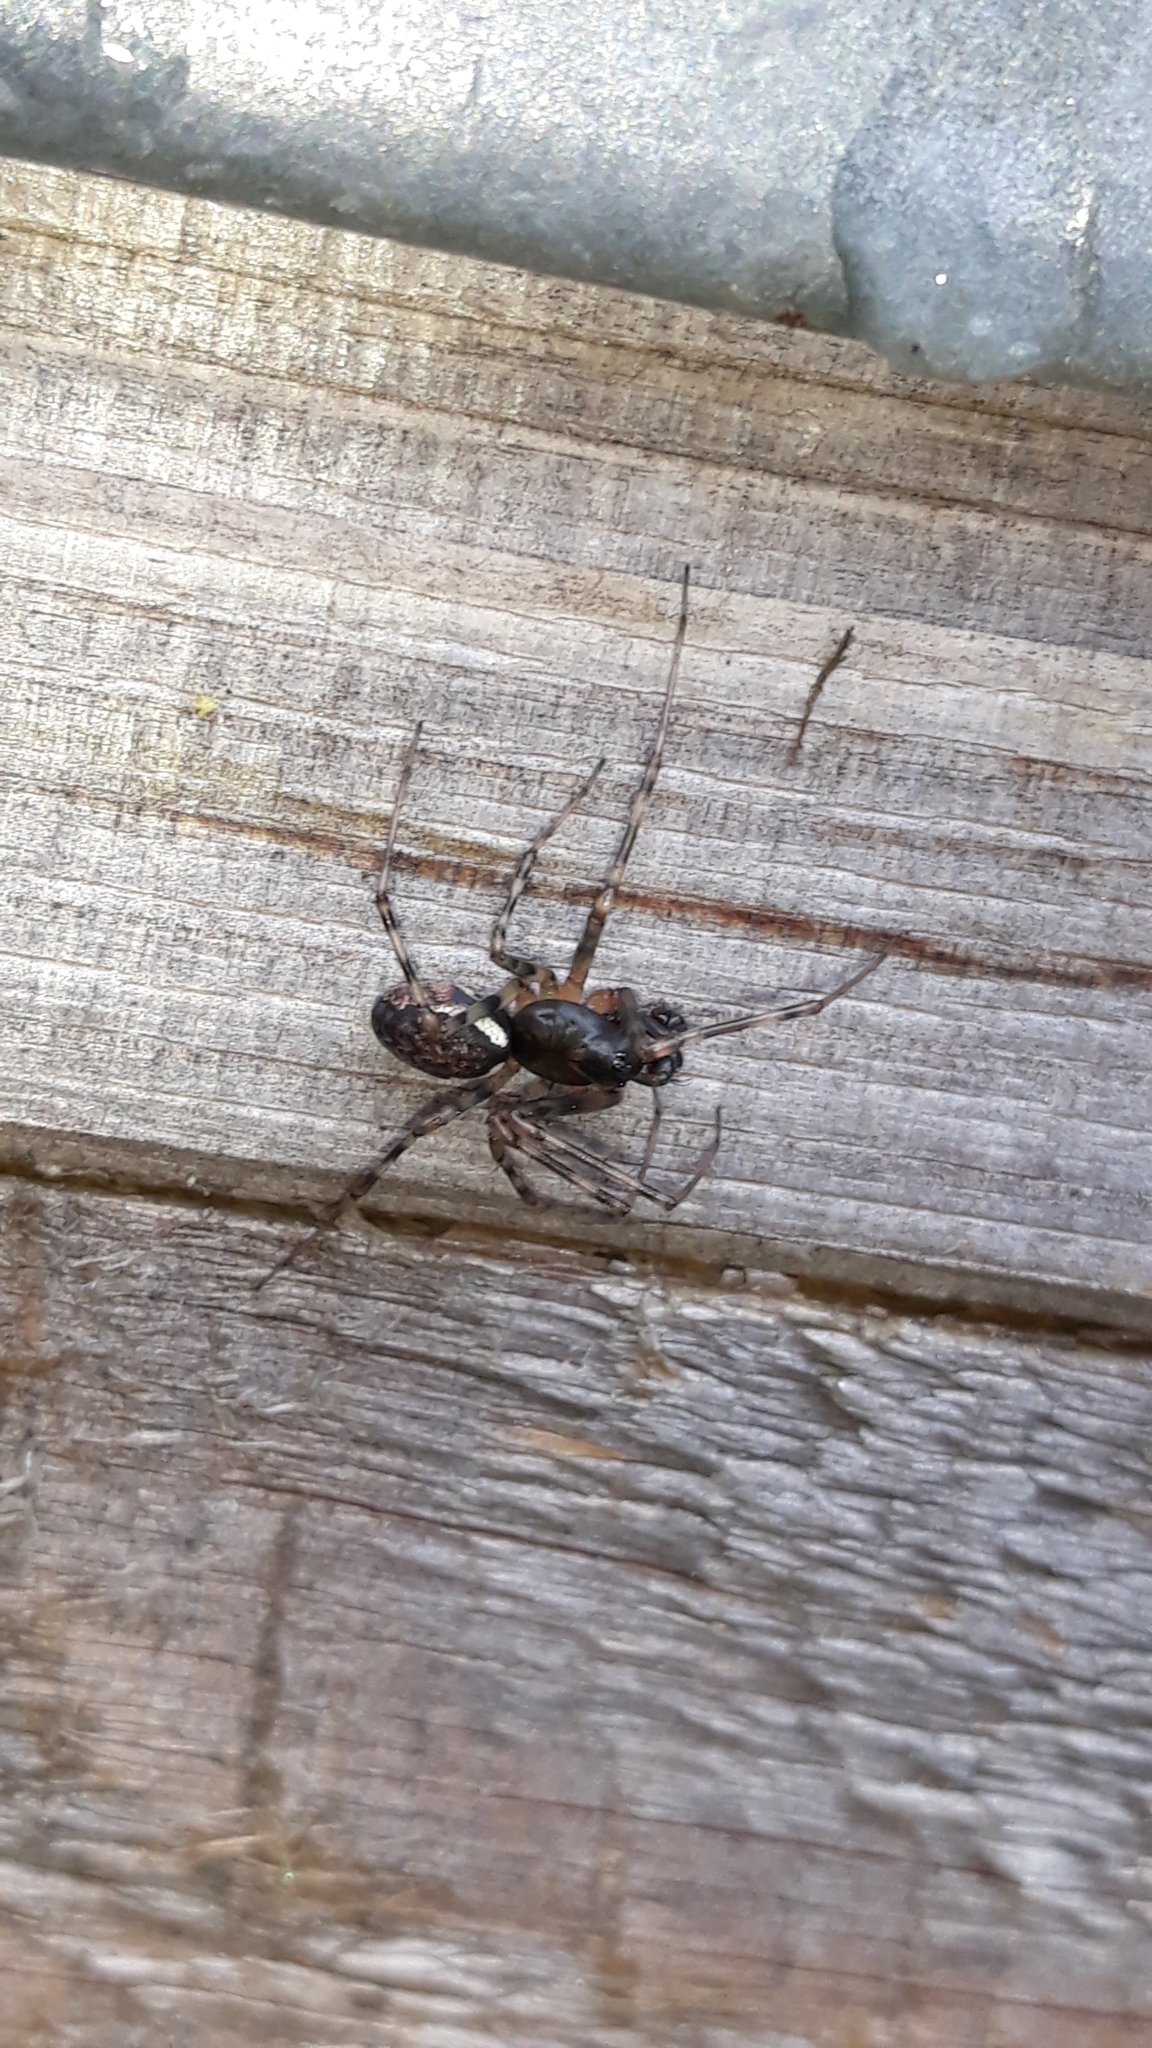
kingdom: Animalia
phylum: Arthropoda
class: Arachnida
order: Araneae
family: Linyphiidae
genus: Neriene
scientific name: Neriene montana
